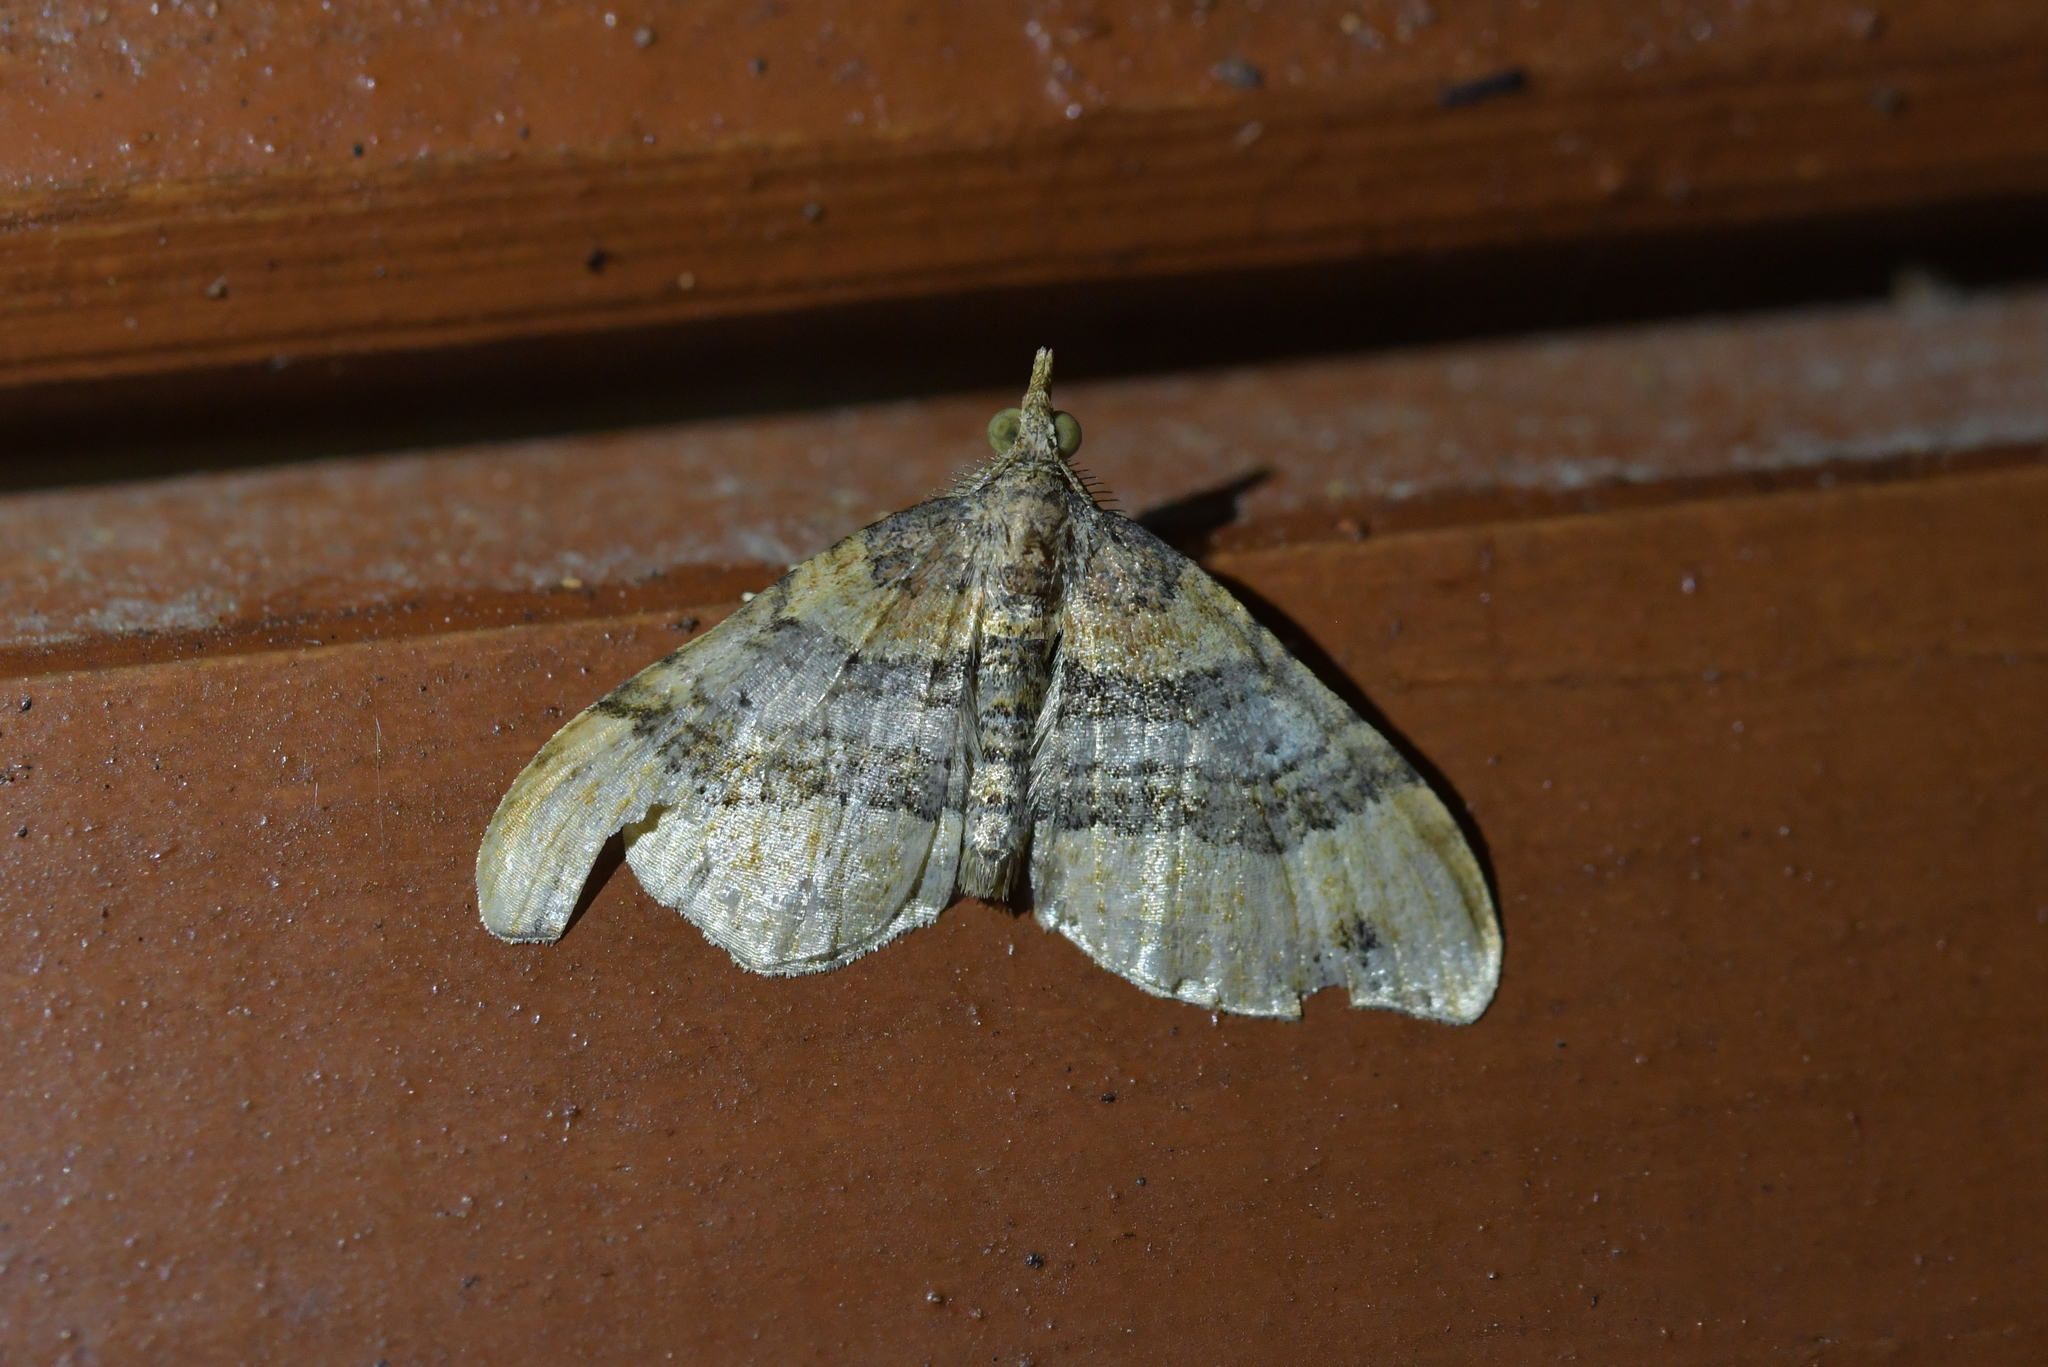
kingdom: Animalia
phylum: Arthropoda
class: Insecta
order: Lepidoptera
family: Geometridae
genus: Homodotis
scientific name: Homodotis megaspilata
